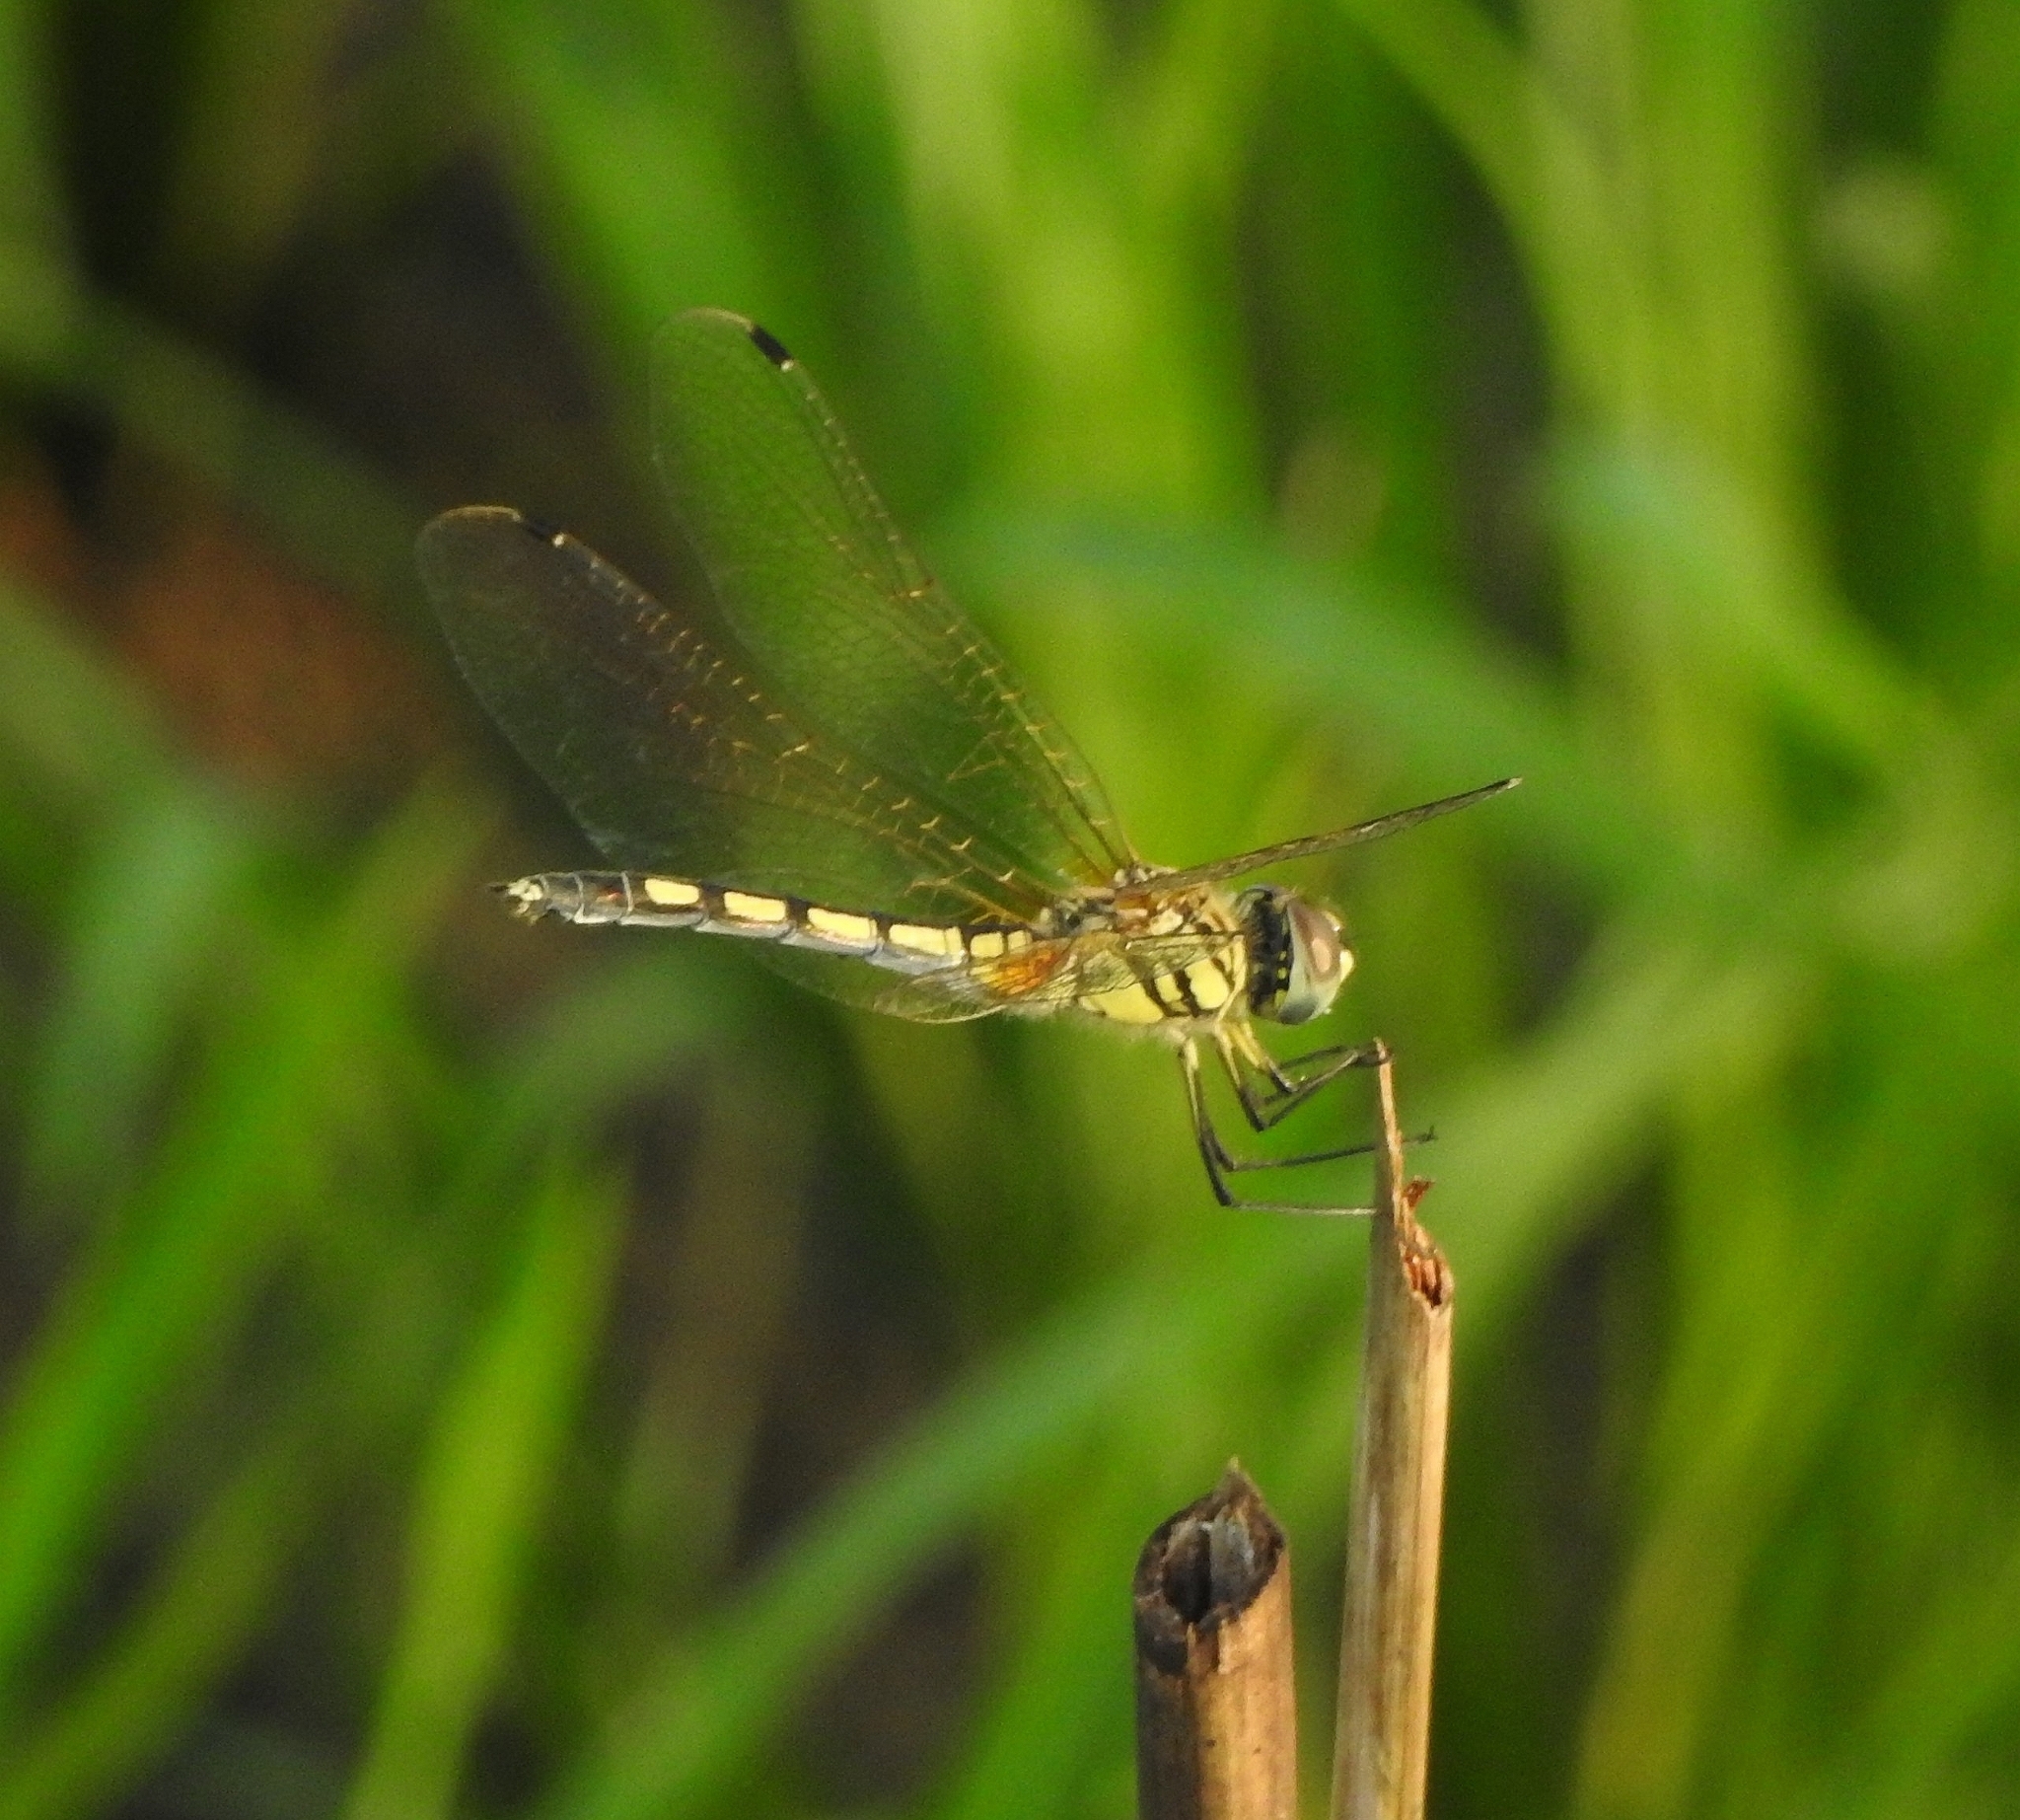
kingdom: Animalia
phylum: Arthropoda
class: Insecta
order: Odonata
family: Libellulidae
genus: Trithemis
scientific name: Trithemis pallidinervis
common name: Dancing dropwing
